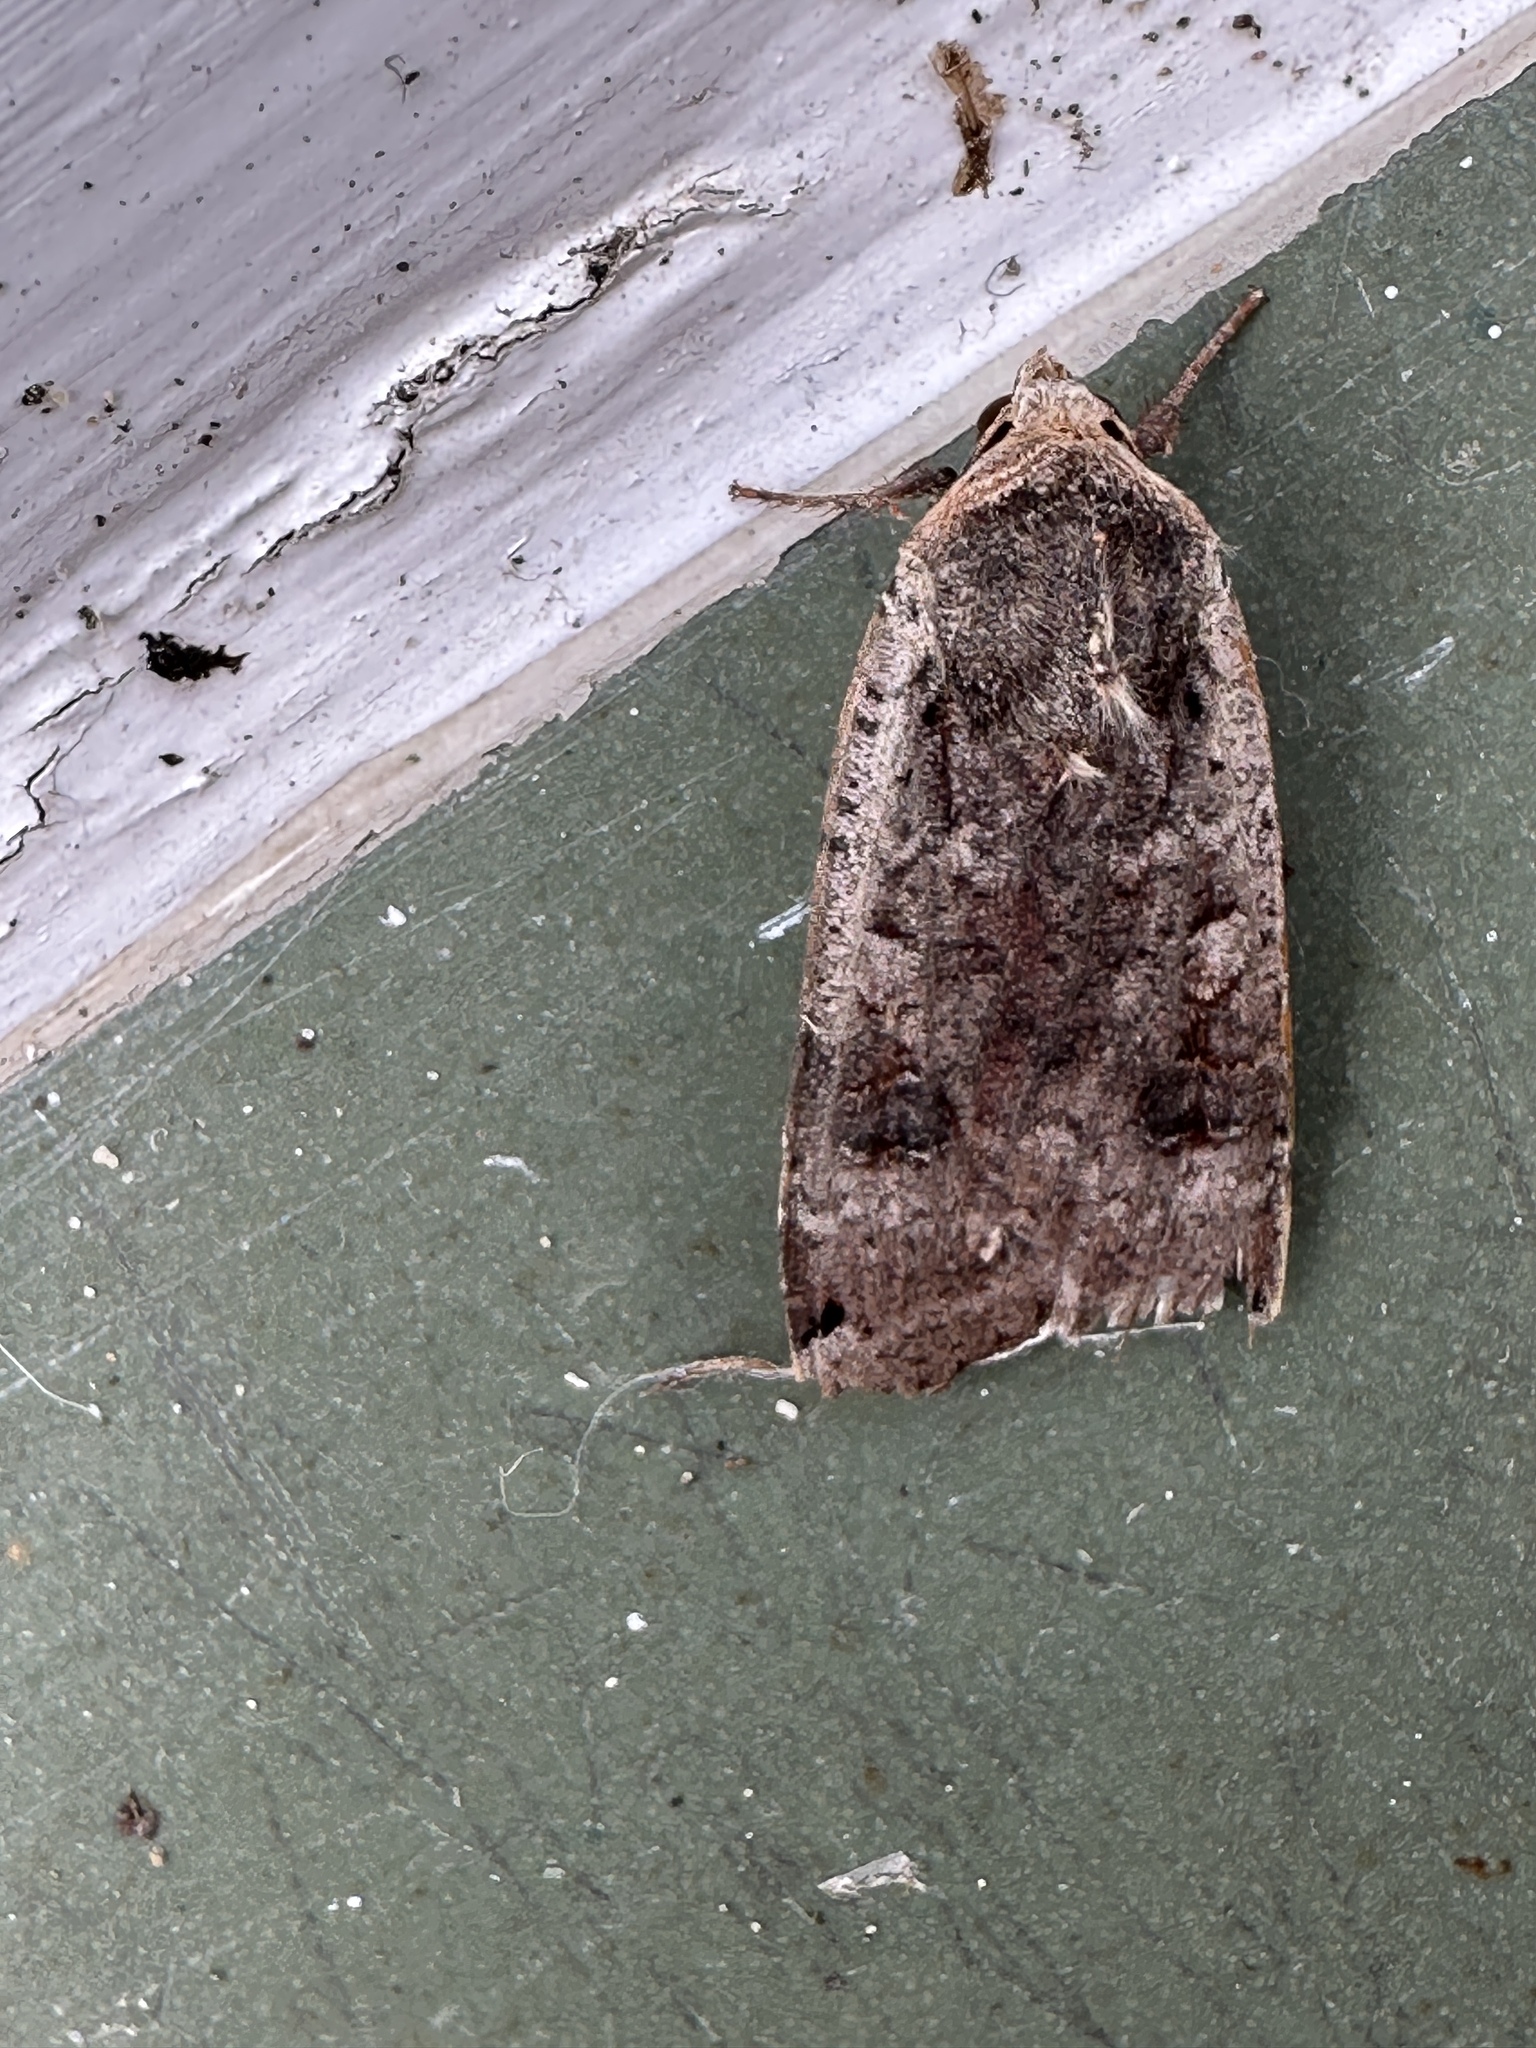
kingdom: Animalia
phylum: Arthropoda
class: Insecta
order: Lepidoptera
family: Noctuidae
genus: Noctua
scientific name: Noctua pronuba
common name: Large yellow underwing
